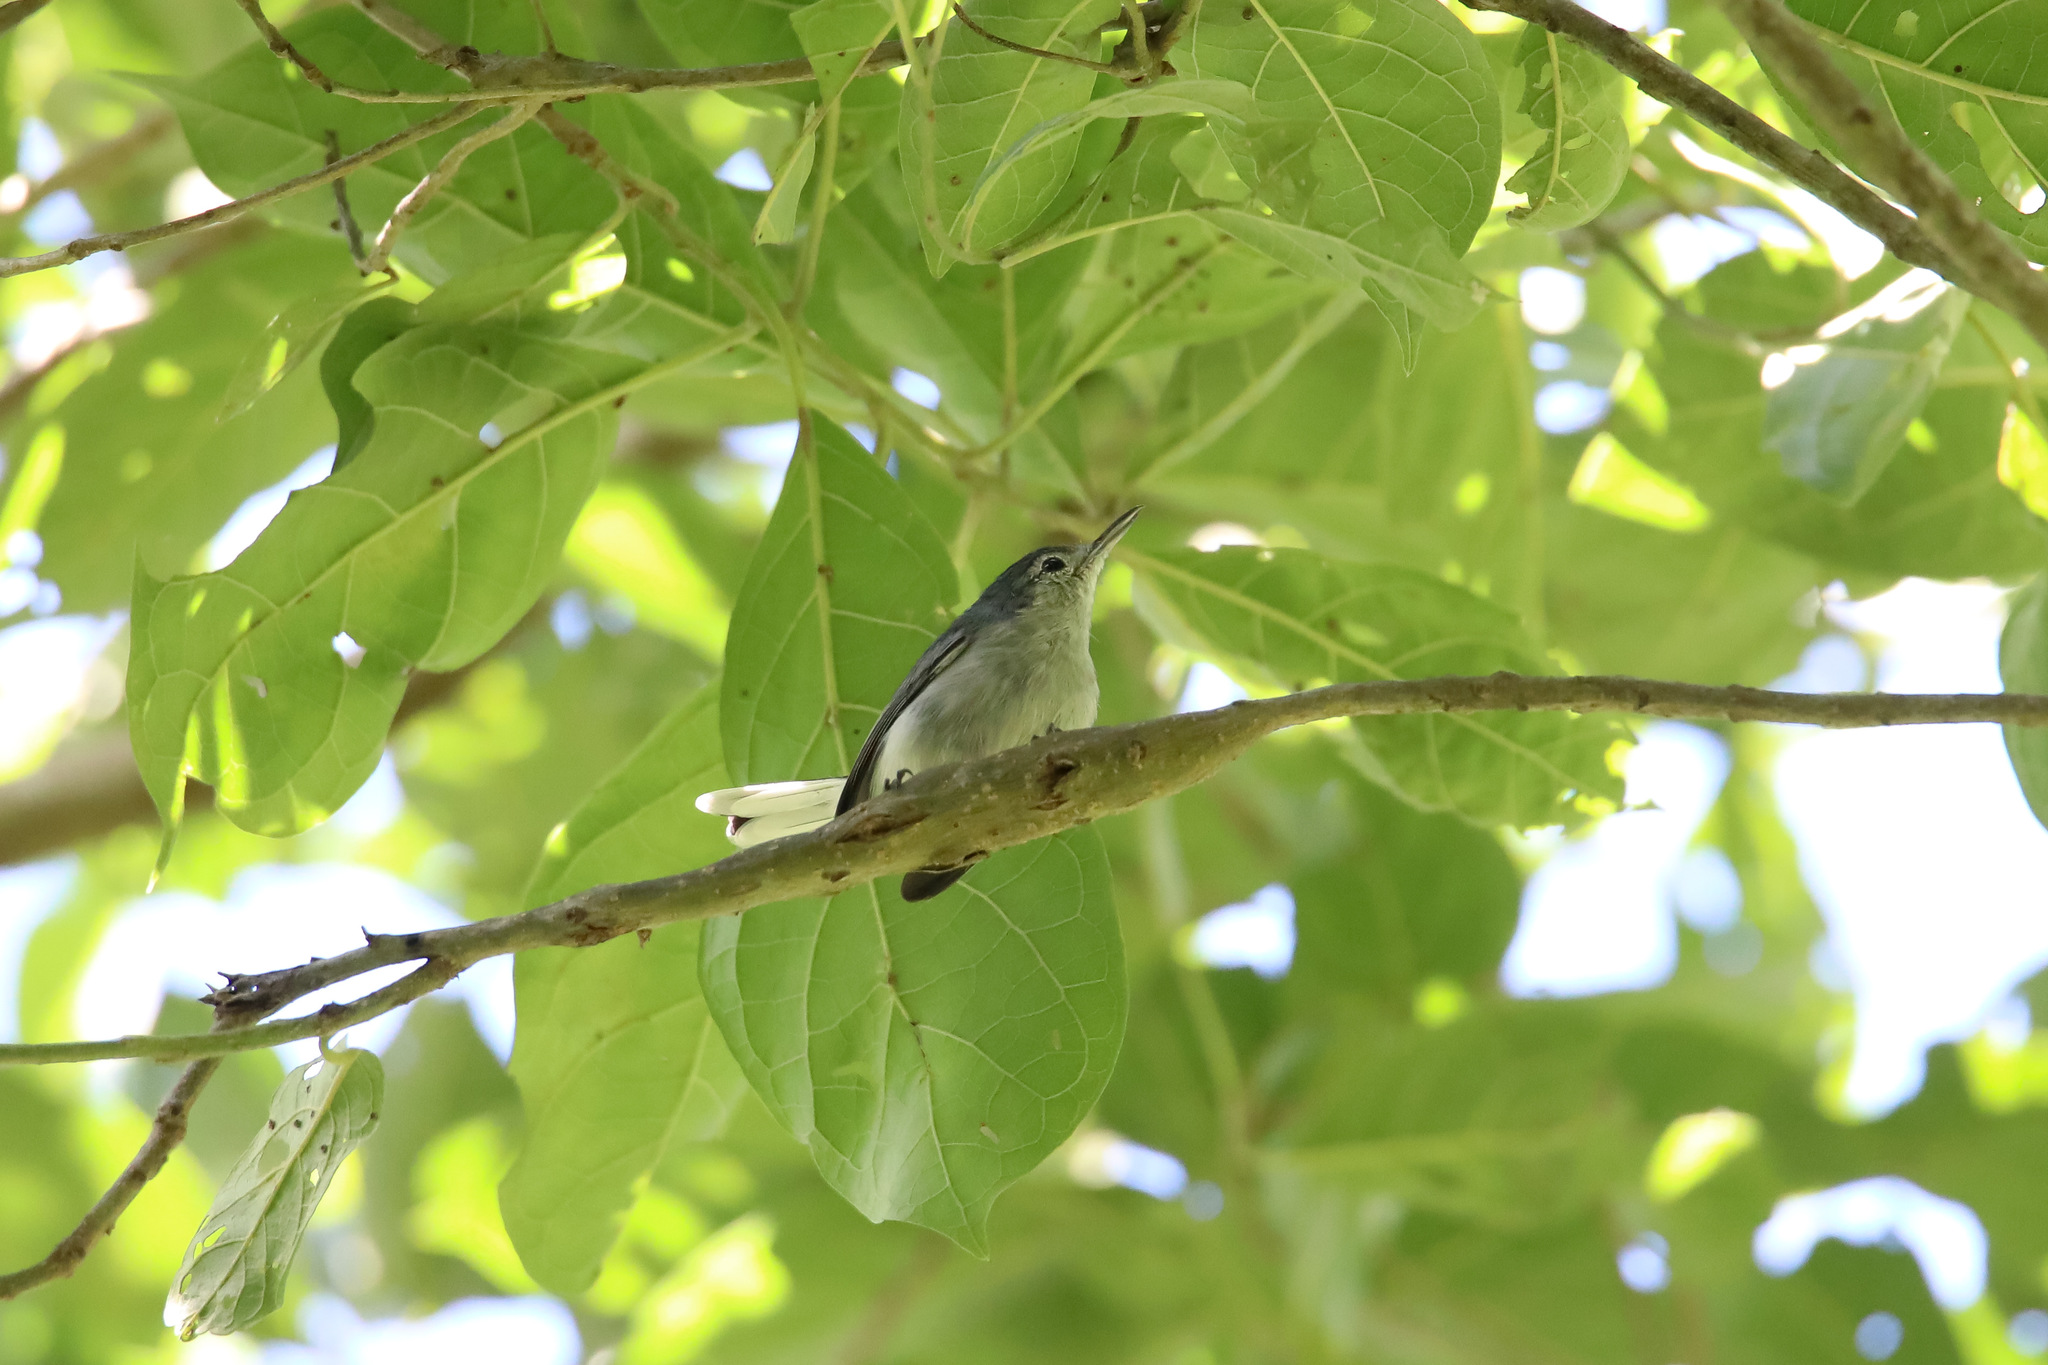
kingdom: Animalia
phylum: Chordata
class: Aves
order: Passeriformes
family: Polioptilidae
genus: Polioptila
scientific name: Polioptila plumbea
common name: Tropical gnatcatcher
